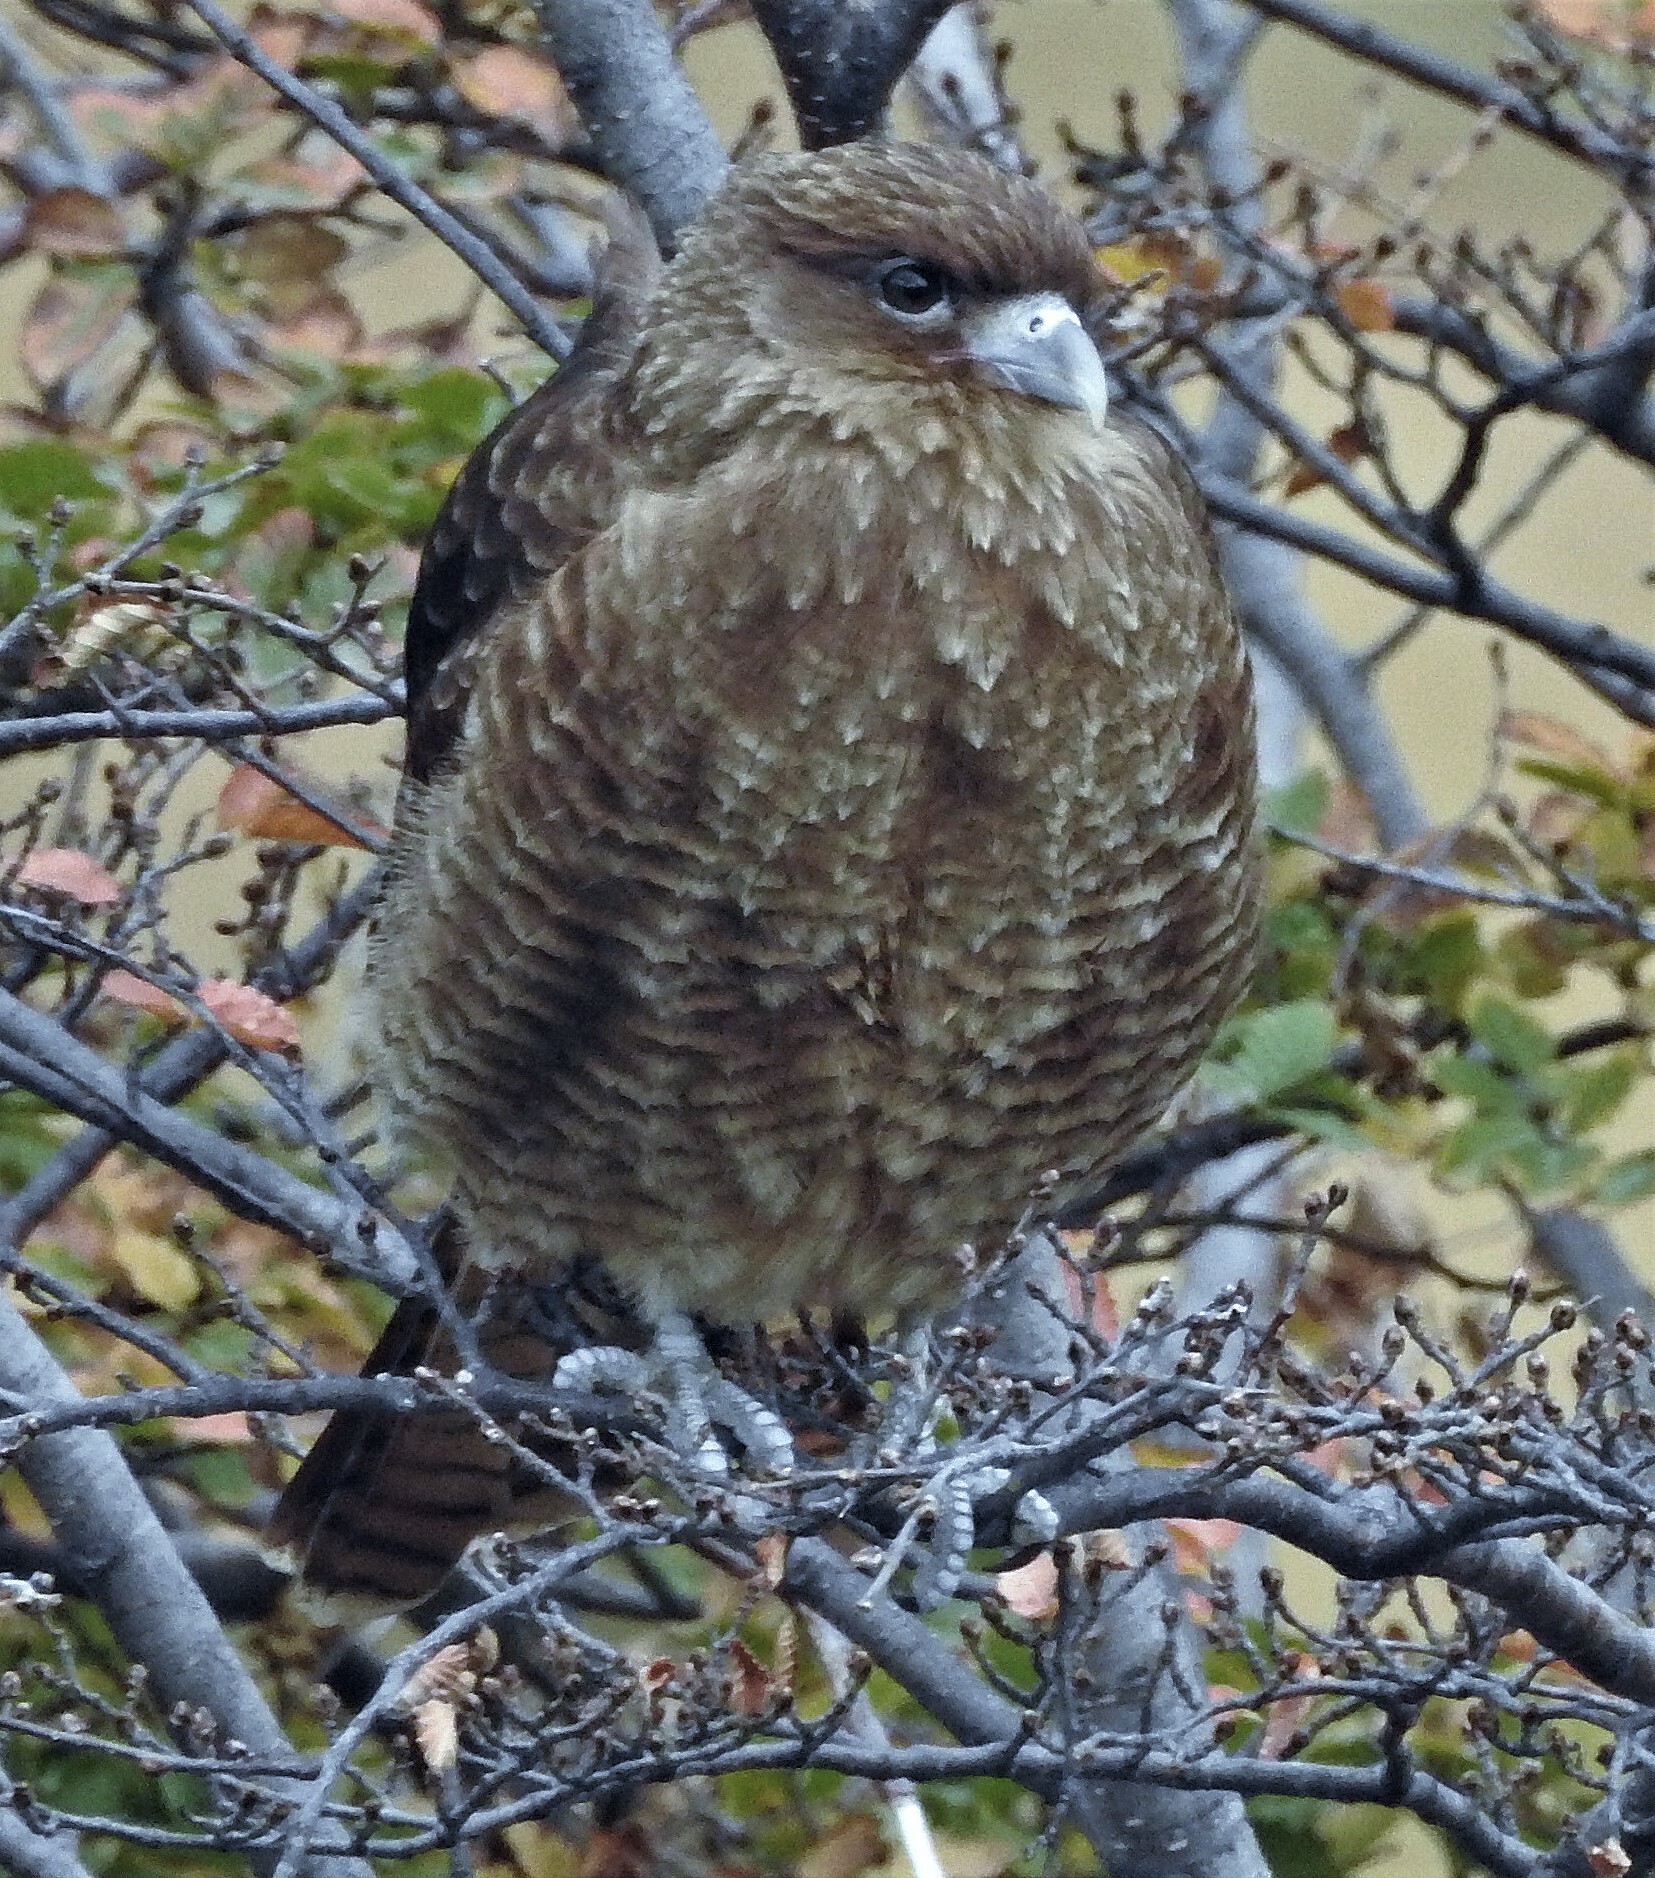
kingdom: Animalia
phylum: Chordata
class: Aves
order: Falconiformes
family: Falconidae
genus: Daptrius
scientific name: Daptrius
